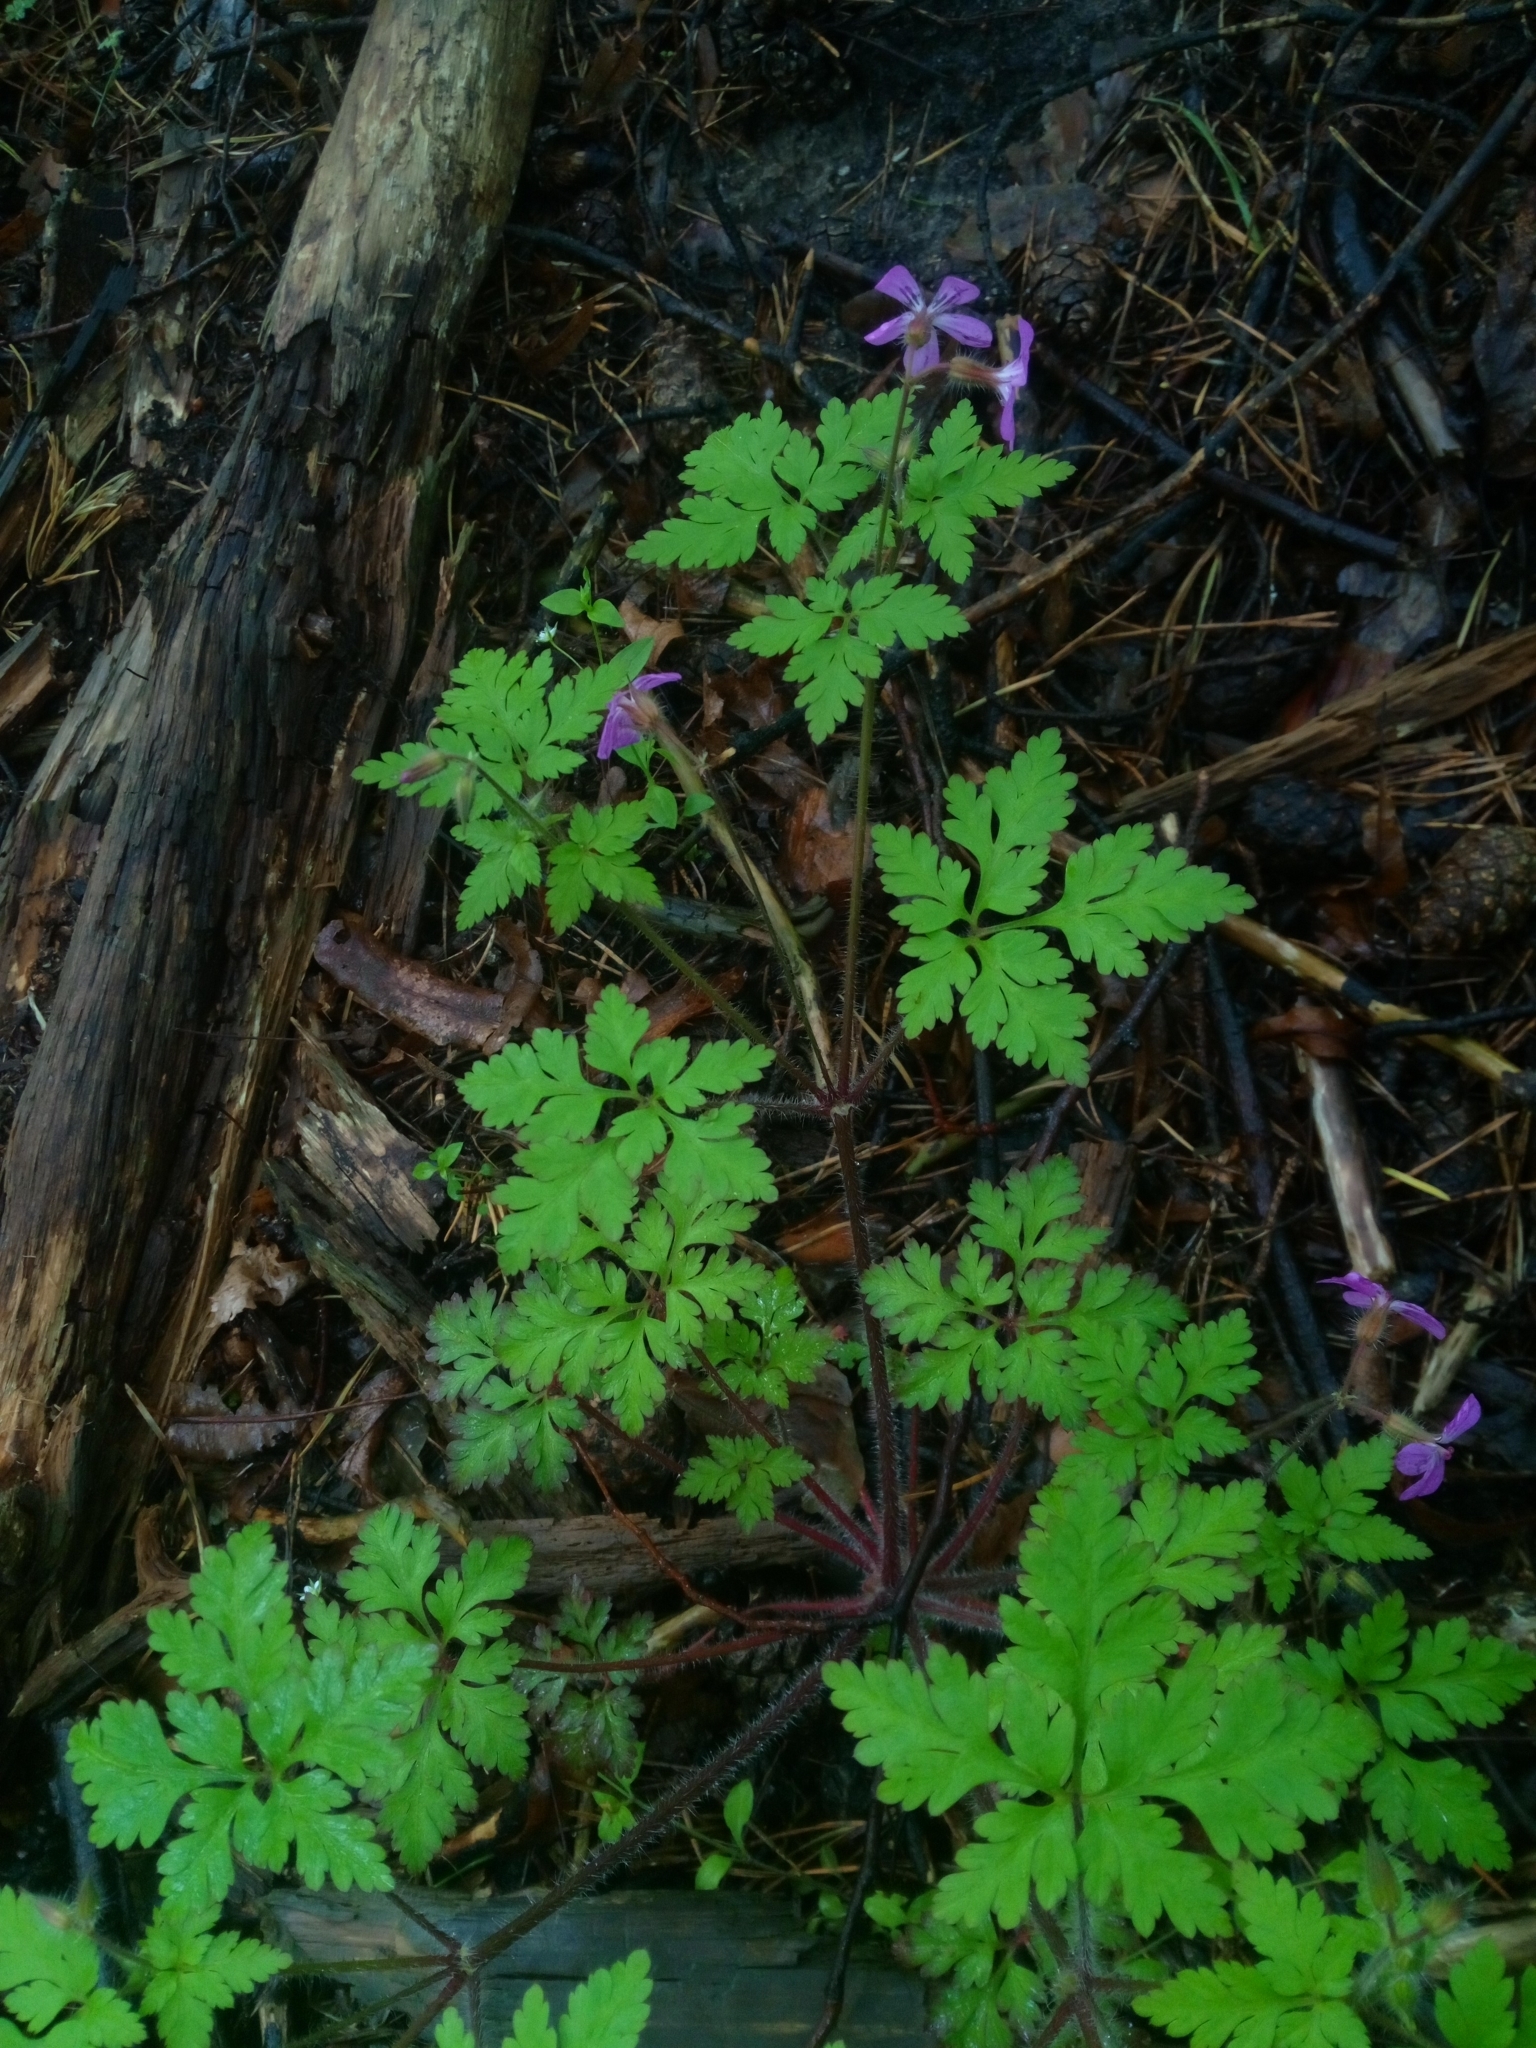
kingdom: Plantae
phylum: Tracheophyta
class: Magnoliopsida
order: Geraniales
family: Geraniaceae
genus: Geranium
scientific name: Geranium robertianum
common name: Herb-robert
